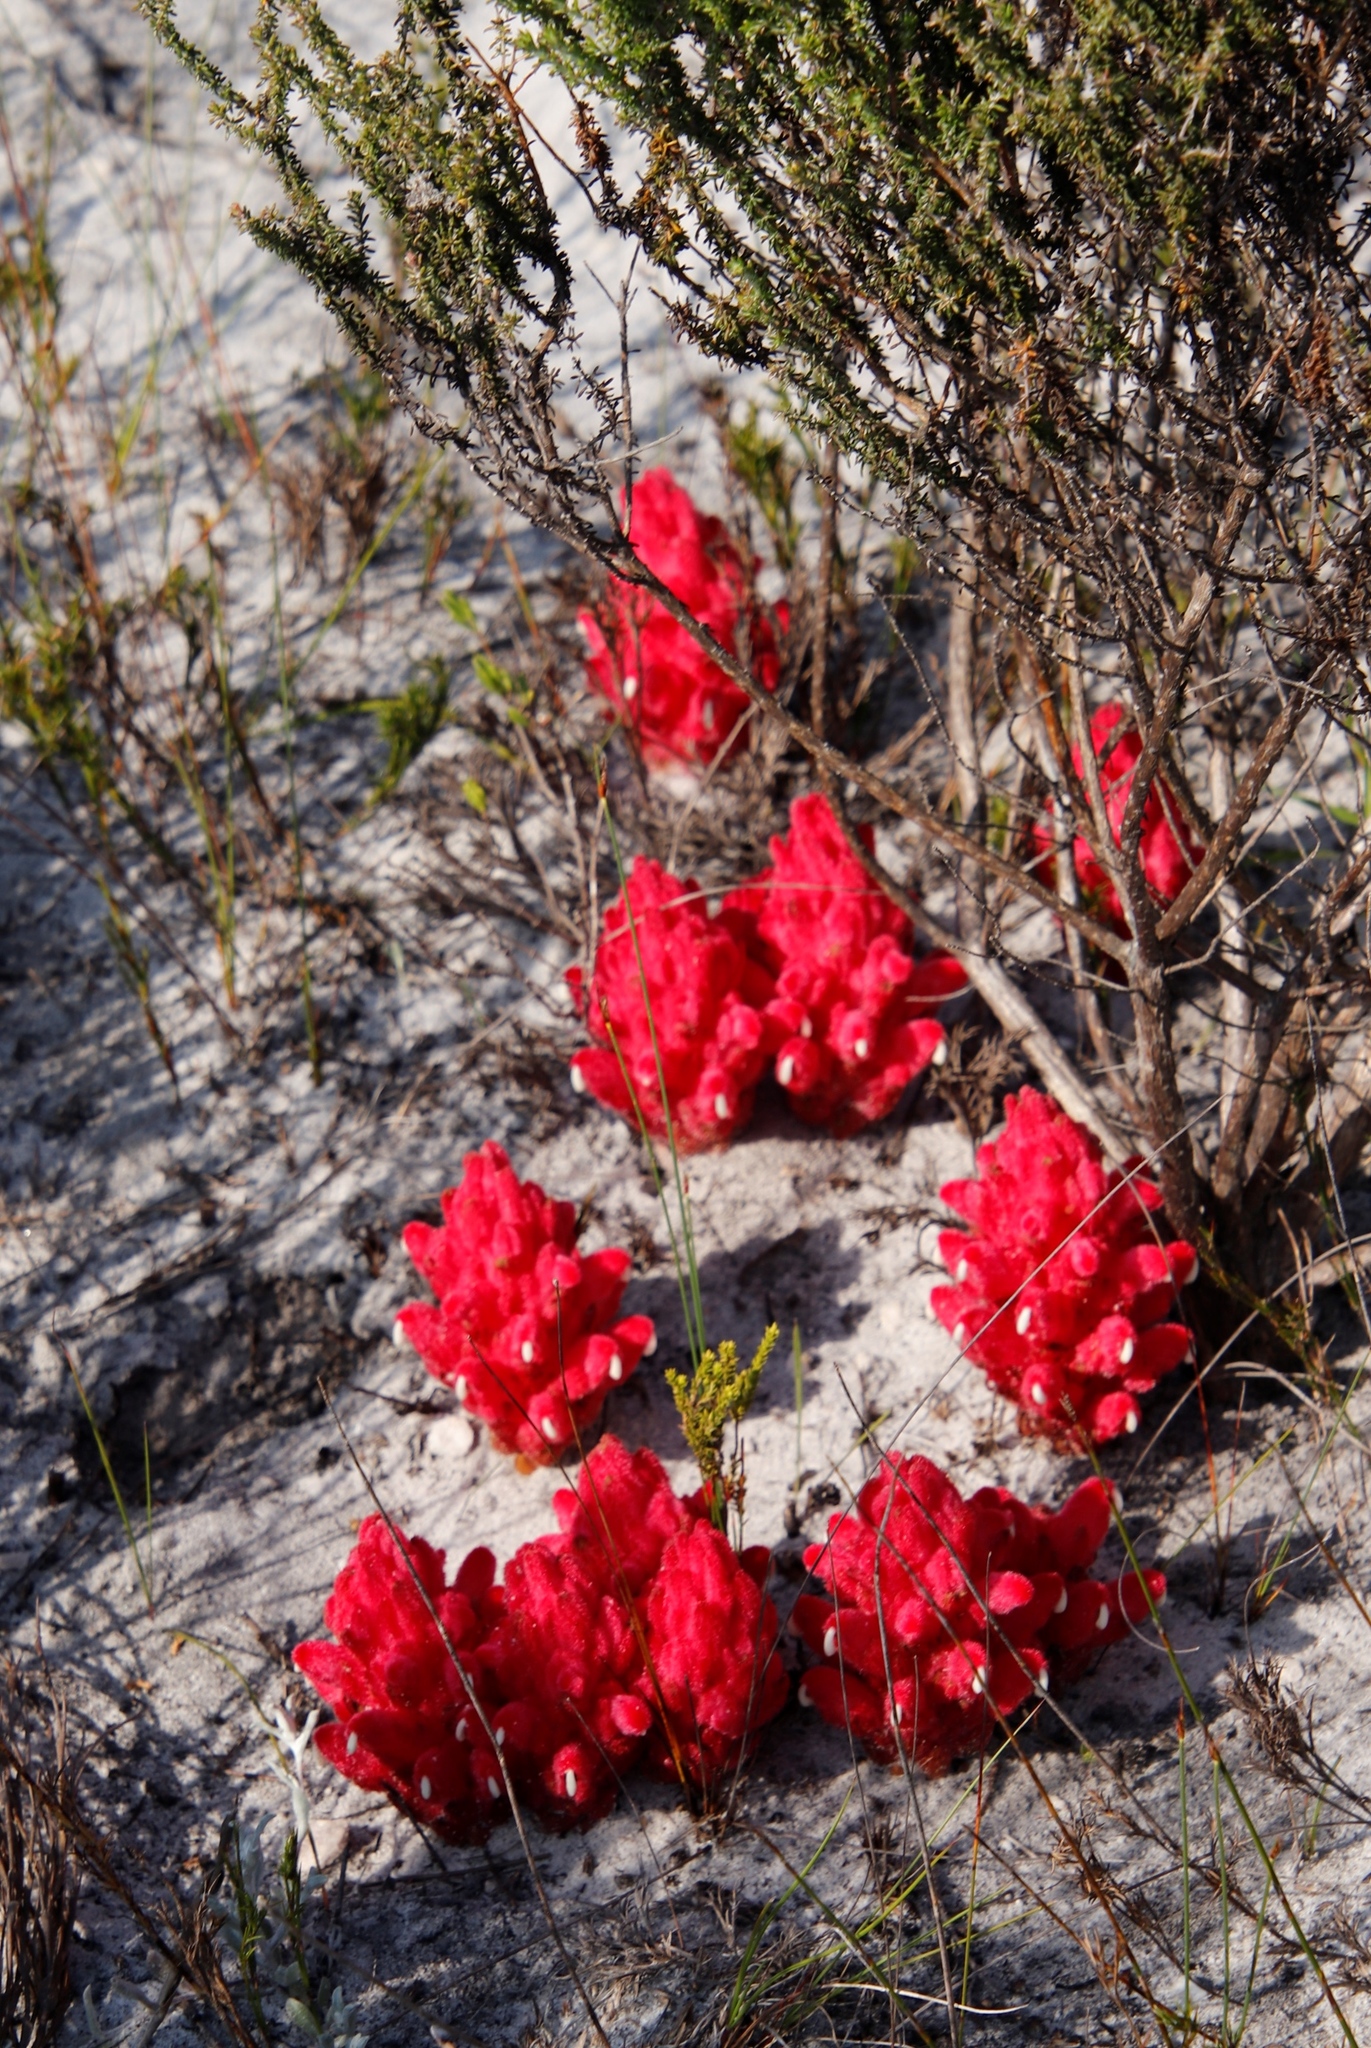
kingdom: Plantae
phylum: Tracheophyta
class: Magnoliopsida
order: Lamiales
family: Orobanchaceae
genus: Hyobanche
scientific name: Hyobanche sanguinea
